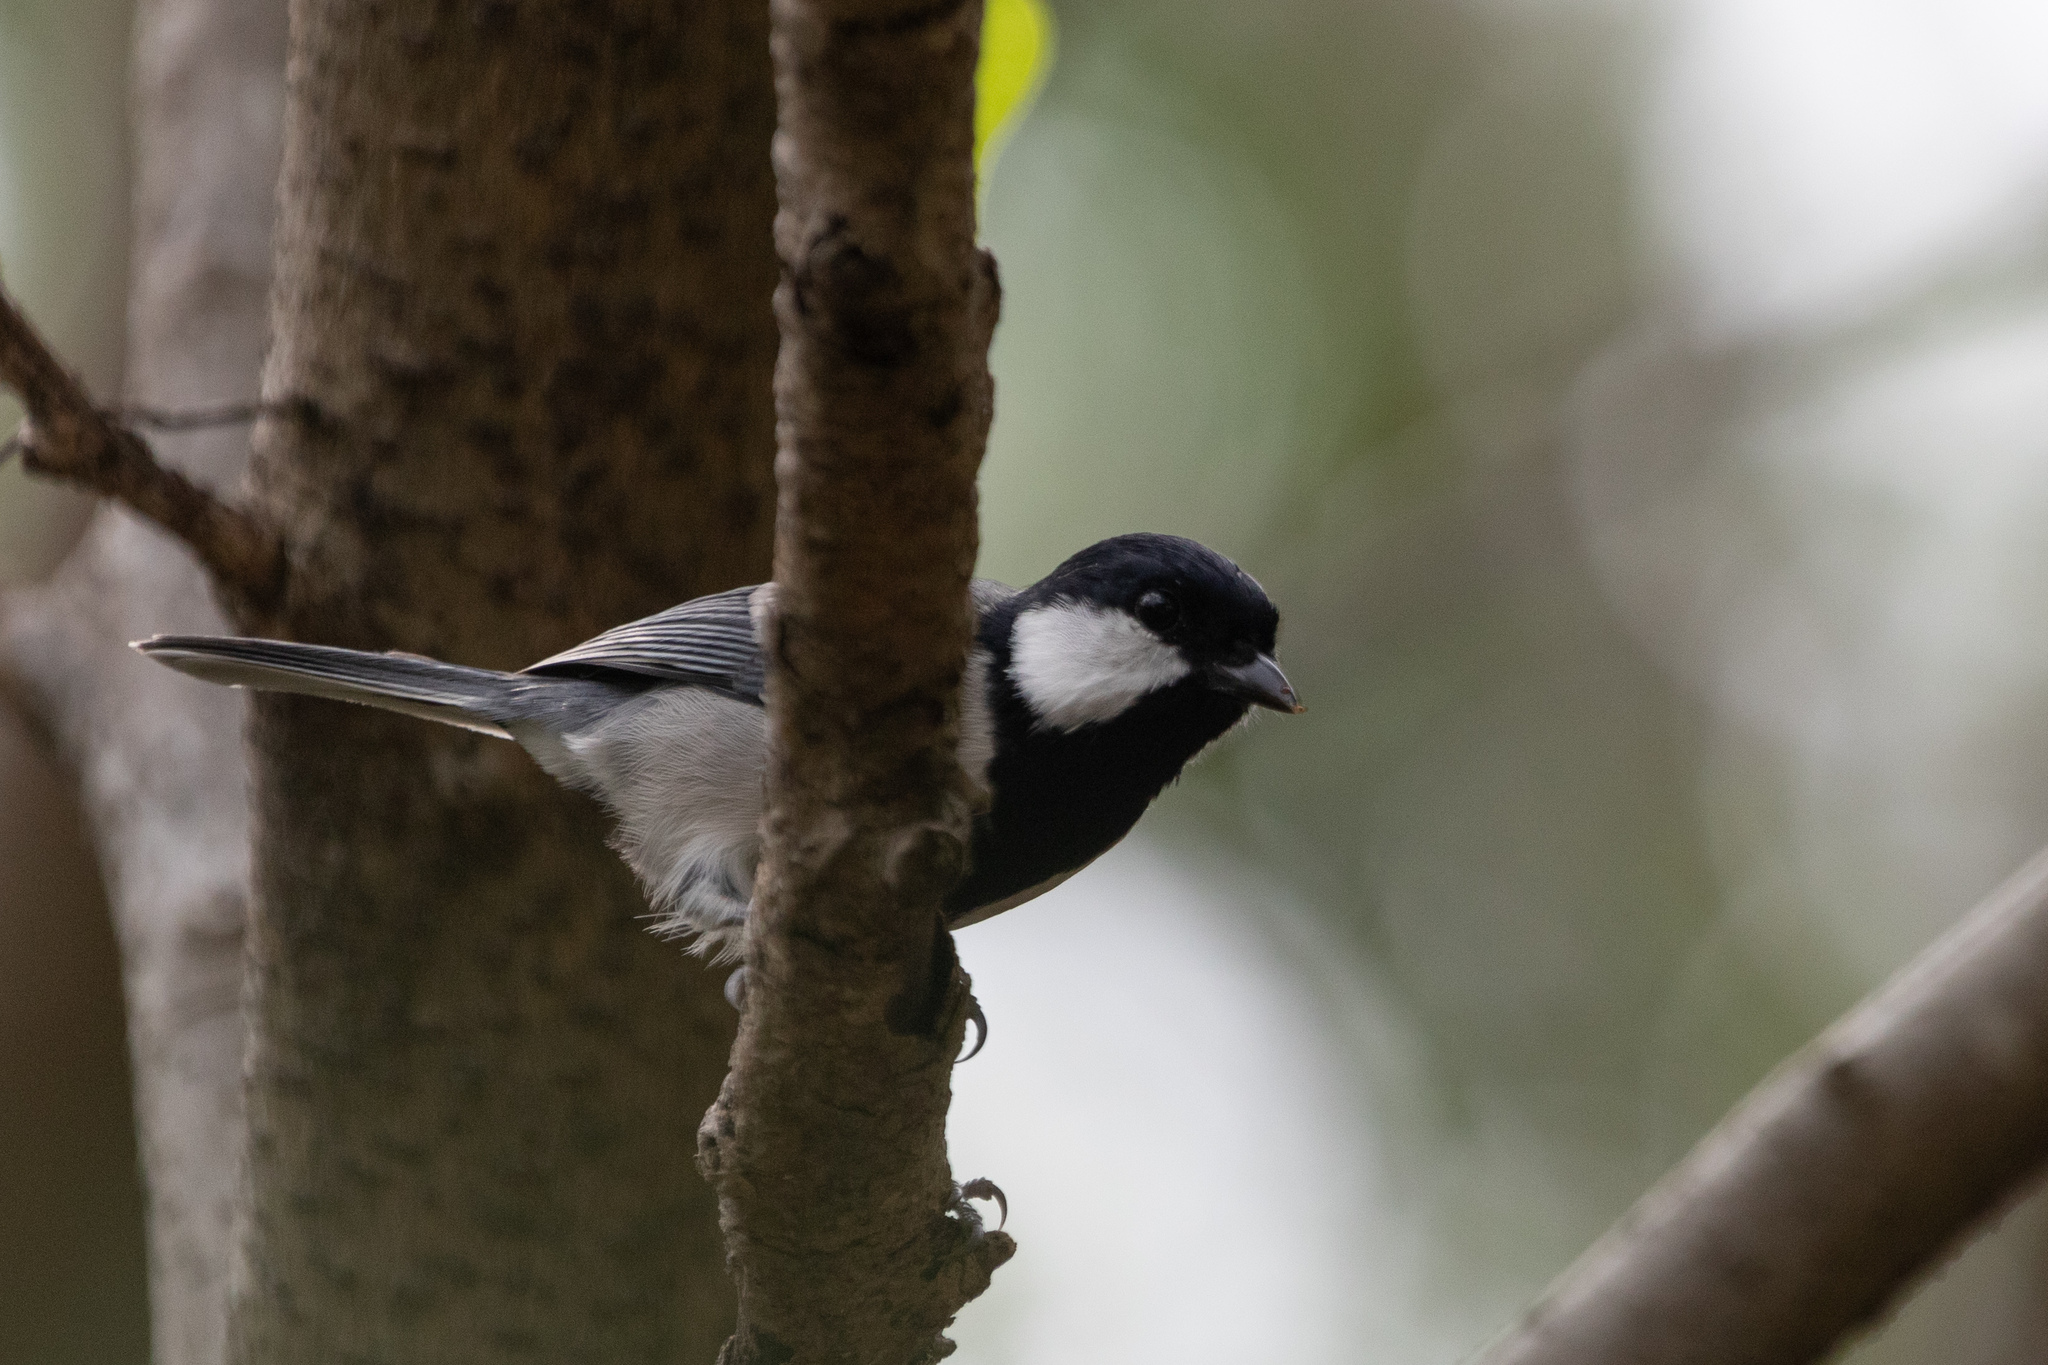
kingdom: Animalia
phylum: Chordata
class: Aves
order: Passeriformes
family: Paridae
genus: Parus
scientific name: Parus minor
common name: Japanese tit
